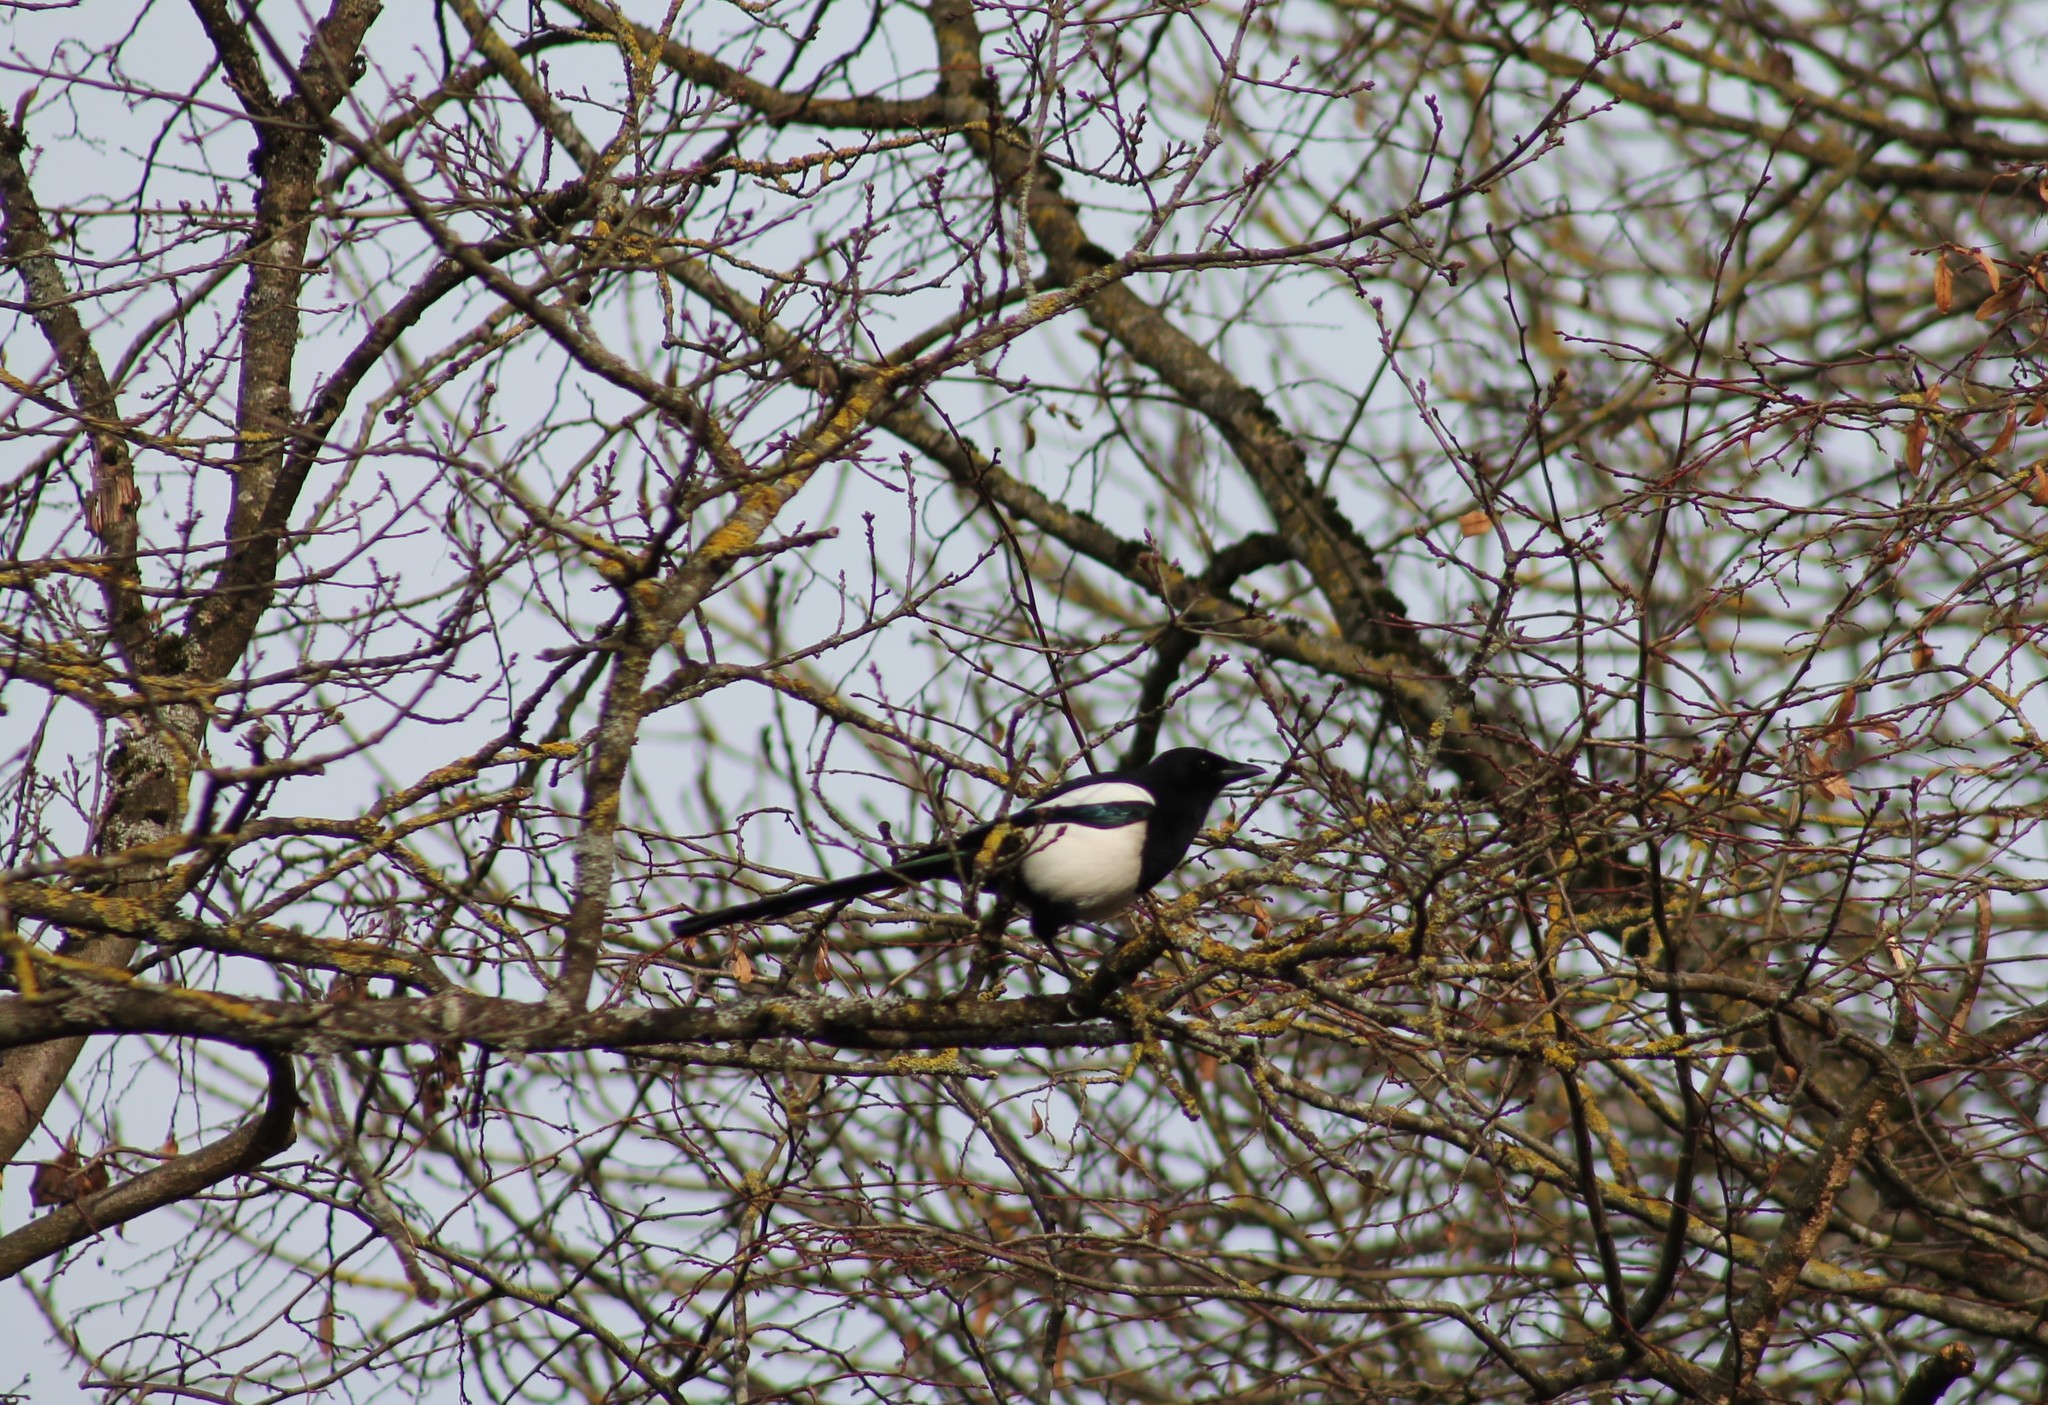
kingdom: Animalia
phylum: Chordata
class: Aves
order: Passeriformes
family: Corvidae
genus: Pica
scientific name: Pica pica
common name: Eurasian magpie
